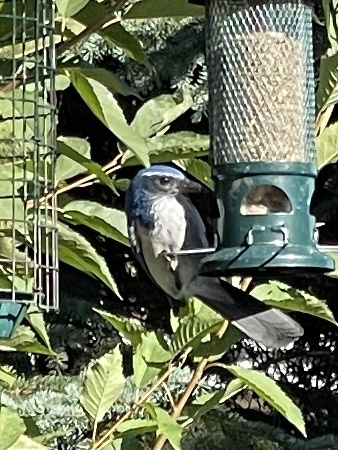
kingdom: Animalia
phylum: Chordata
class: Aves
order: Passeriformes
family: Corvidae
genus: Aphelocoma
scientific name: Aphelocoma californica
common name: California scrub-jay
